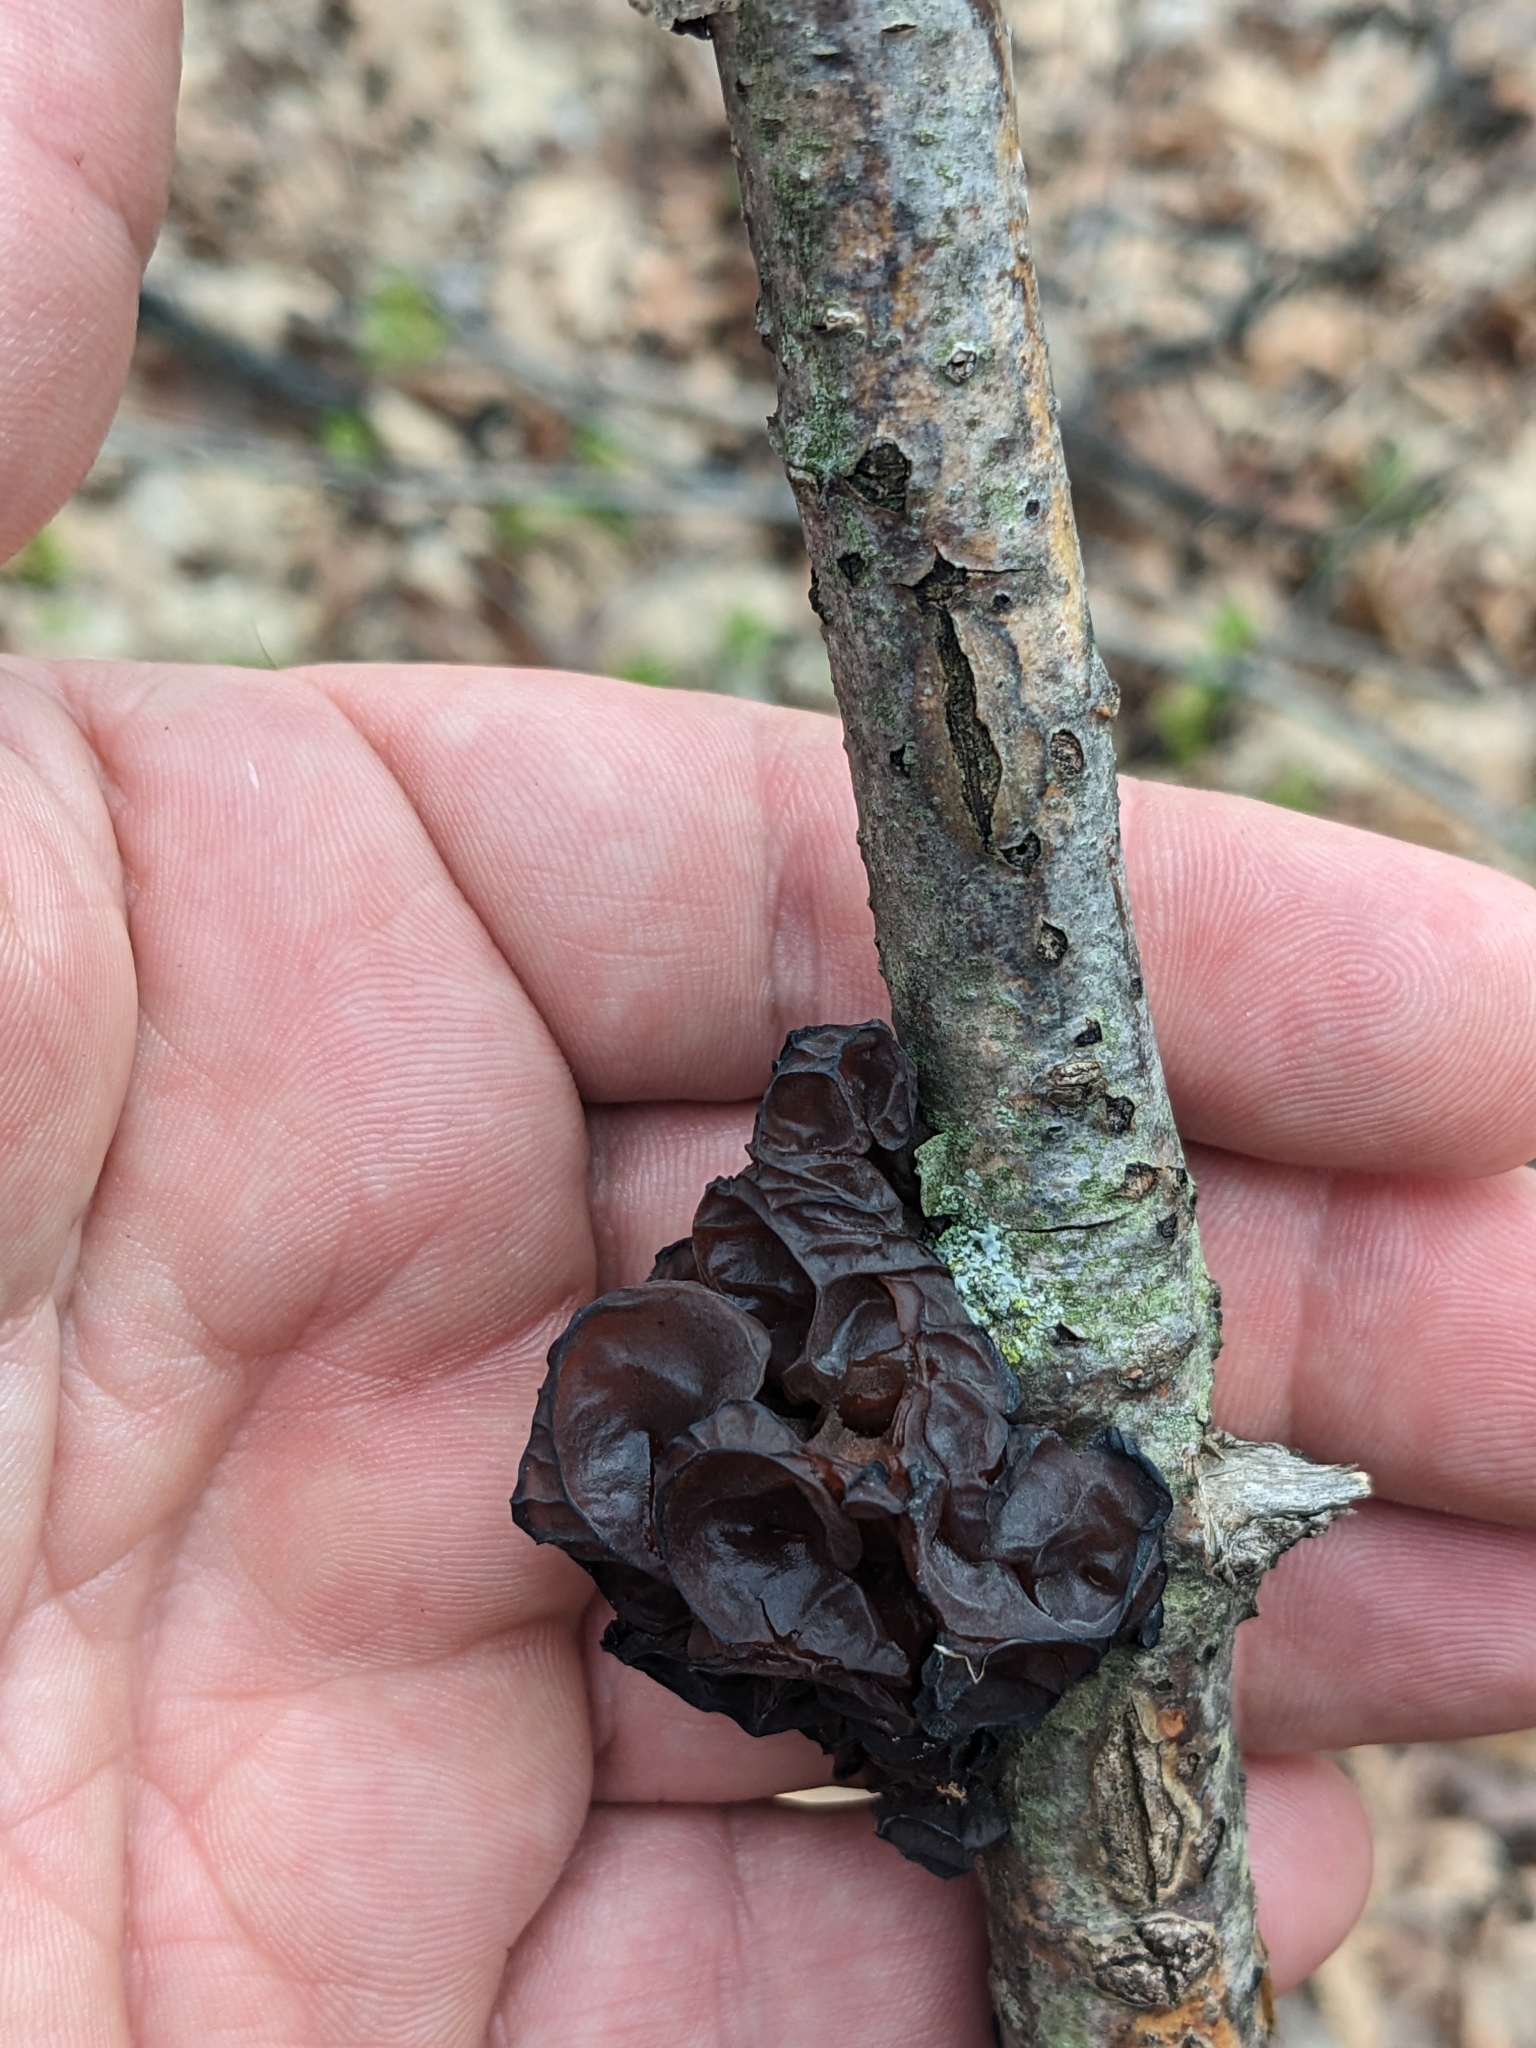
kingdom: Fungi
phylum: Basidiomycota
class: Agaricomycetes
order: Auriculariales
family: Auriculariaceae
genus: Exidia
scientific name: Exidia
